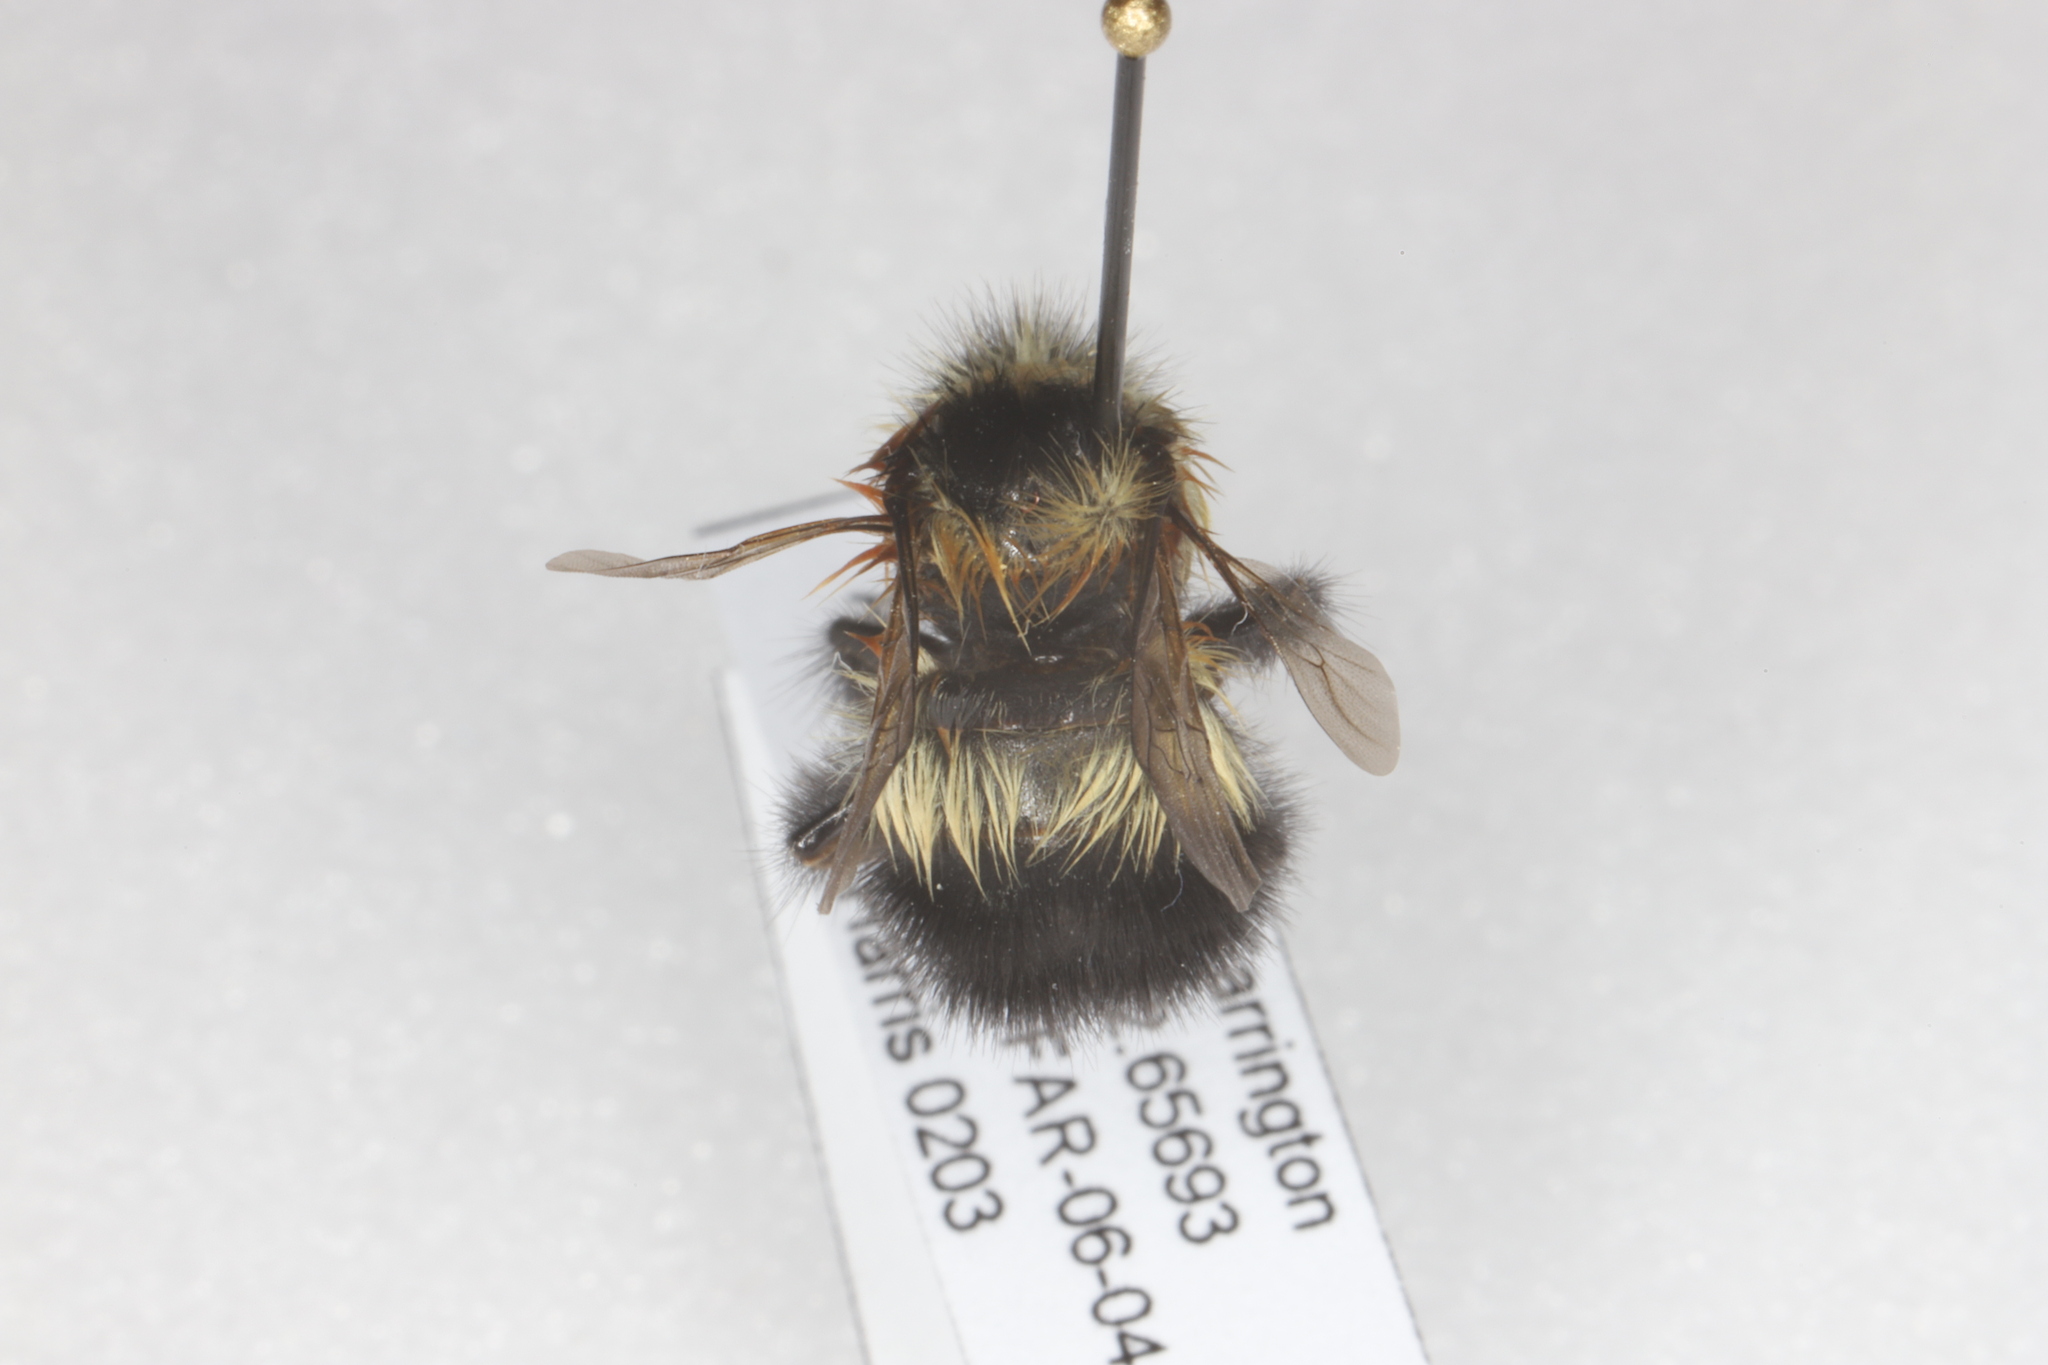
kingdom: Animalia
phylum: Arthropoda
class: Insecta
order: Hymenoptera
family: Apidae
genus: Bombus
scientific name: Bombus sandersoni
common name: Sanderson bumble bee
